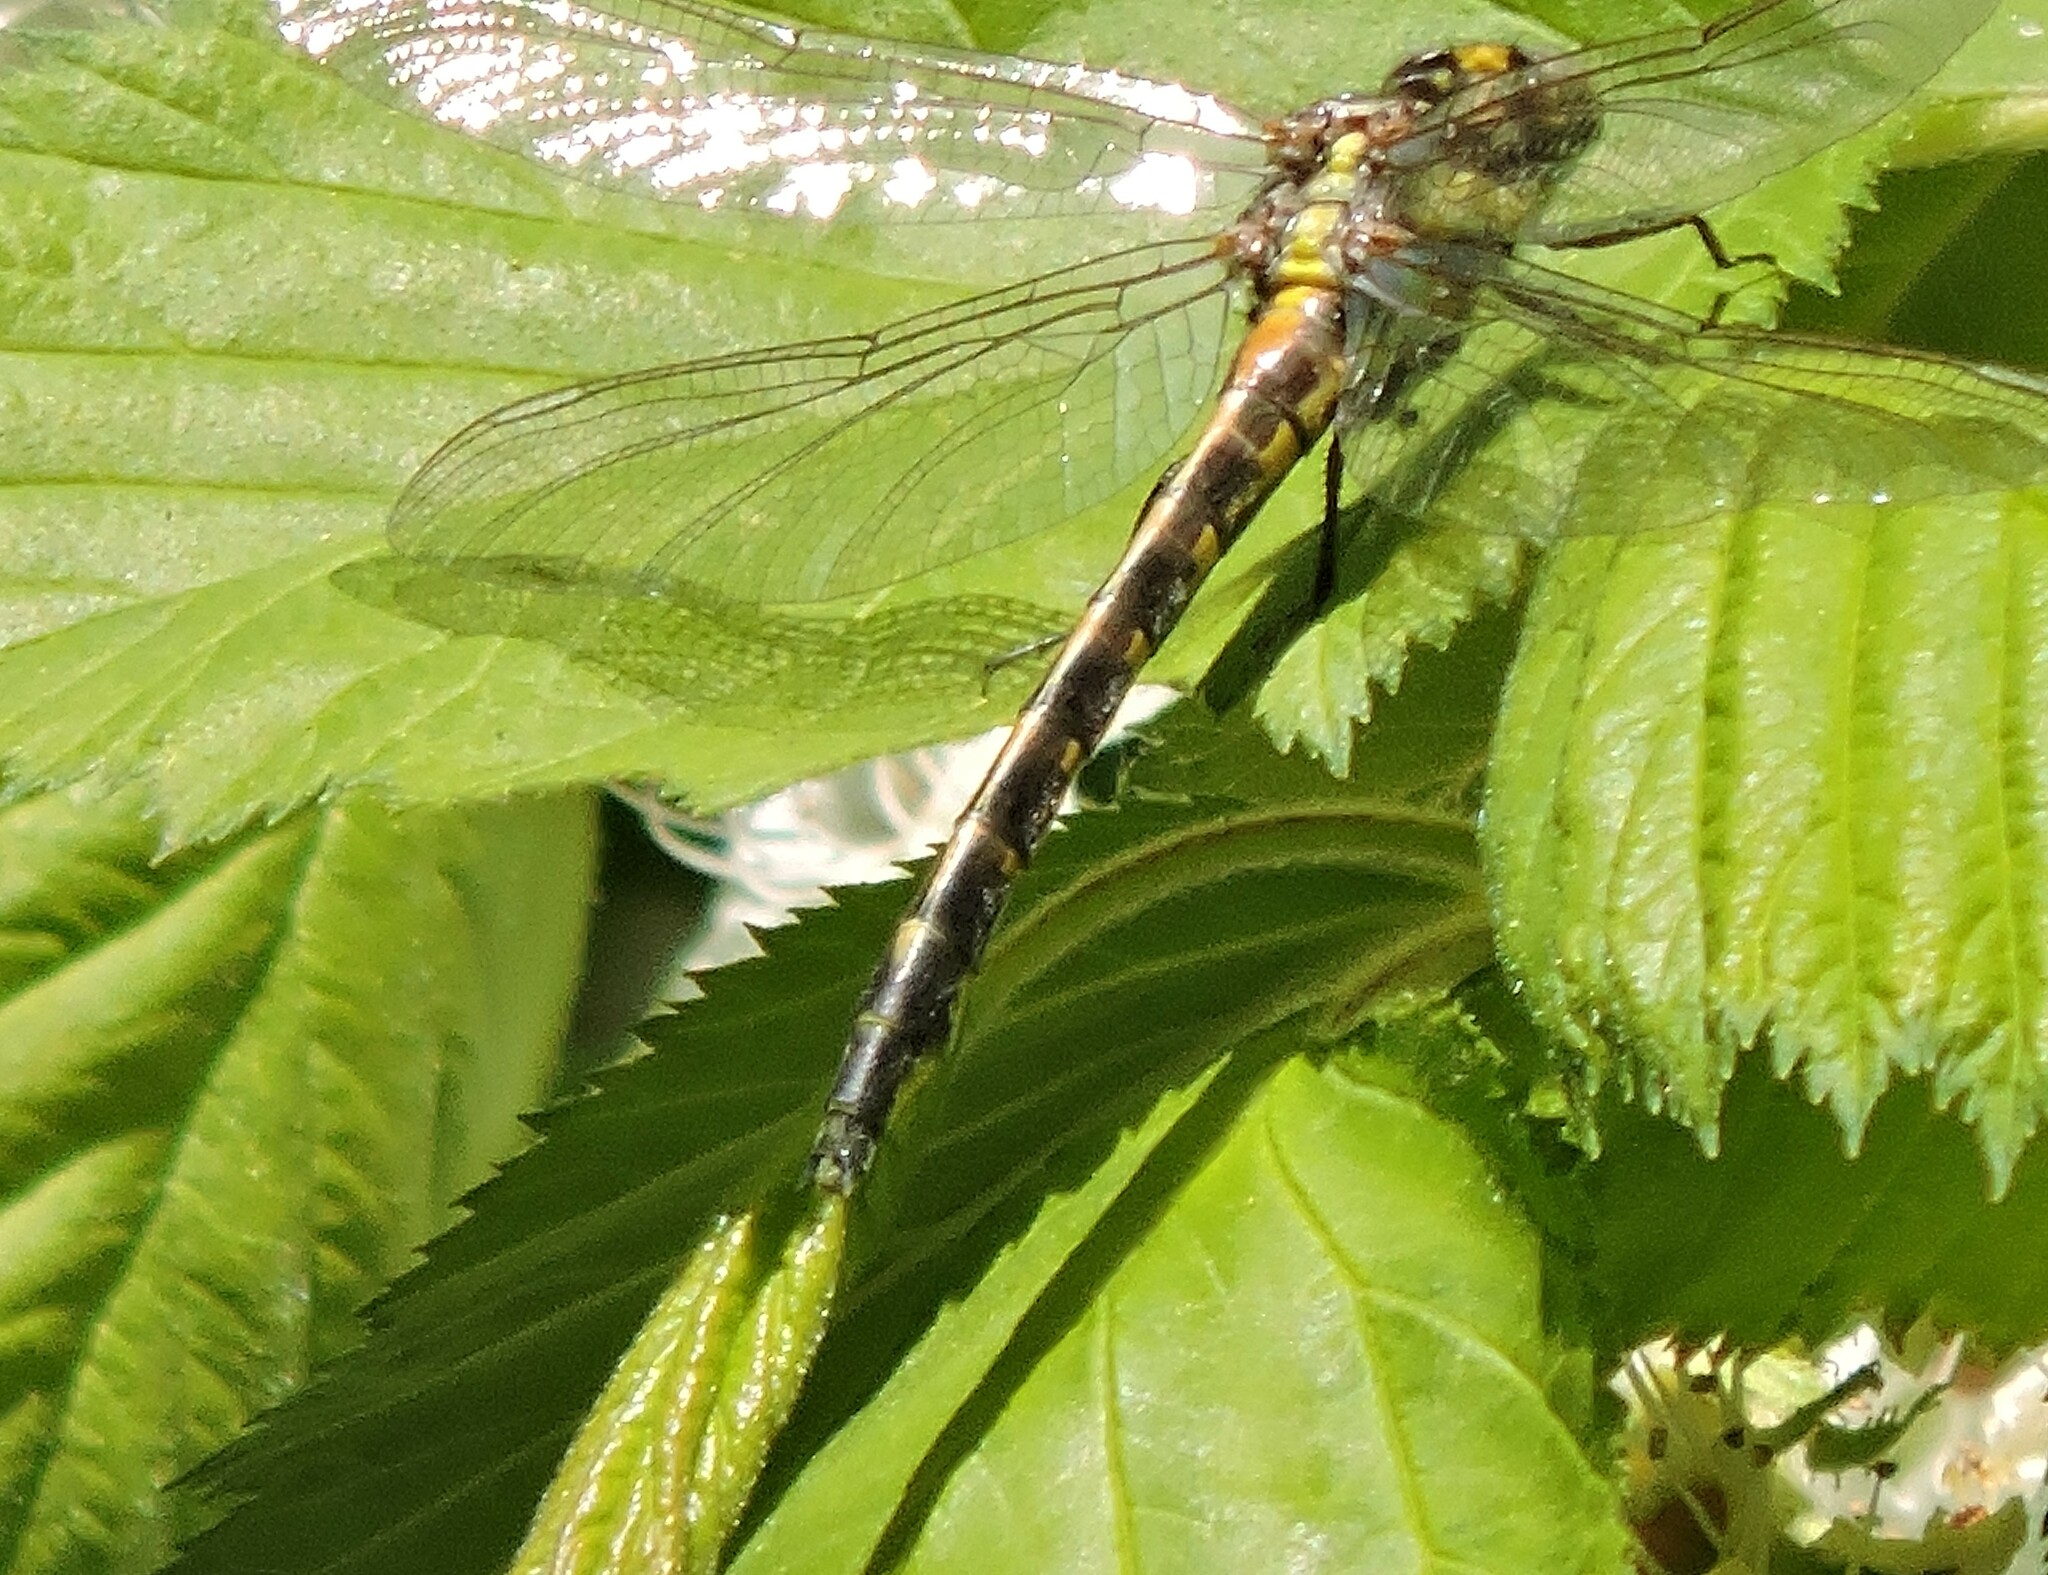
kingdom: Animalia
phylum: Arthropoda
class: Insecta
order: Odonata
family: Gomphidae
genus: Phanogomphus
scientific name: Phanogomphus kurilis
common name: Pacific clubtail
